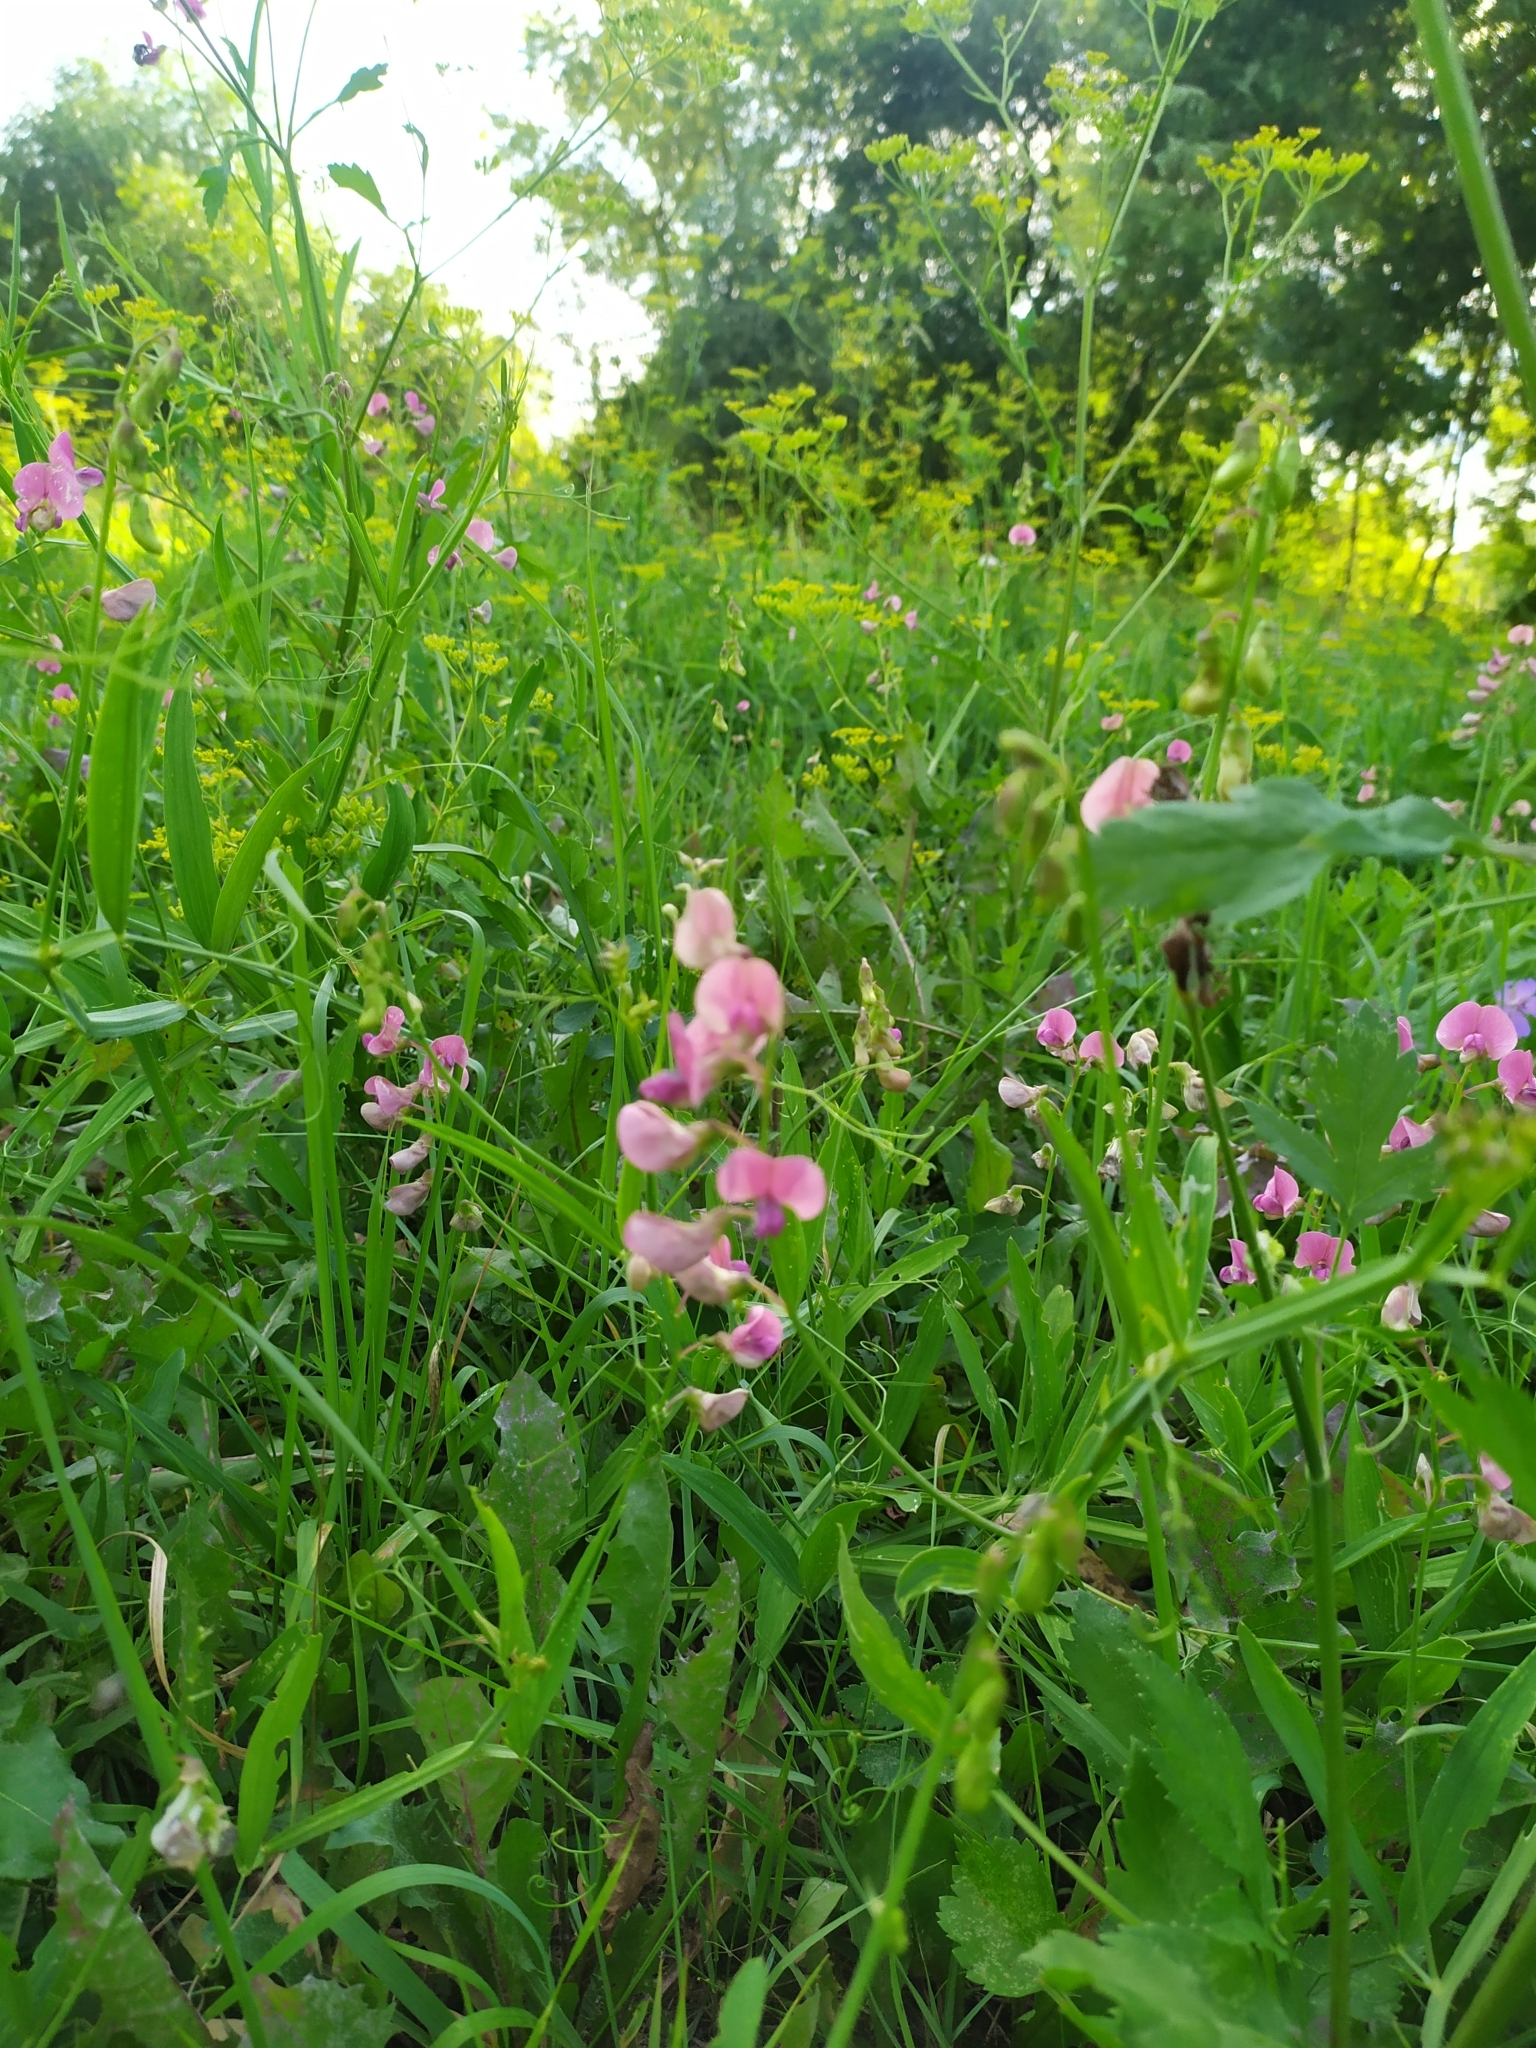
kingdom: Plantae
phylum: Tracheophyta
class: Magnoliopsida
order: Fabales
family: Fabaceae
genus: Lathyrus
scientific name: Lathyrus sylvestris
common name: Flat pea
